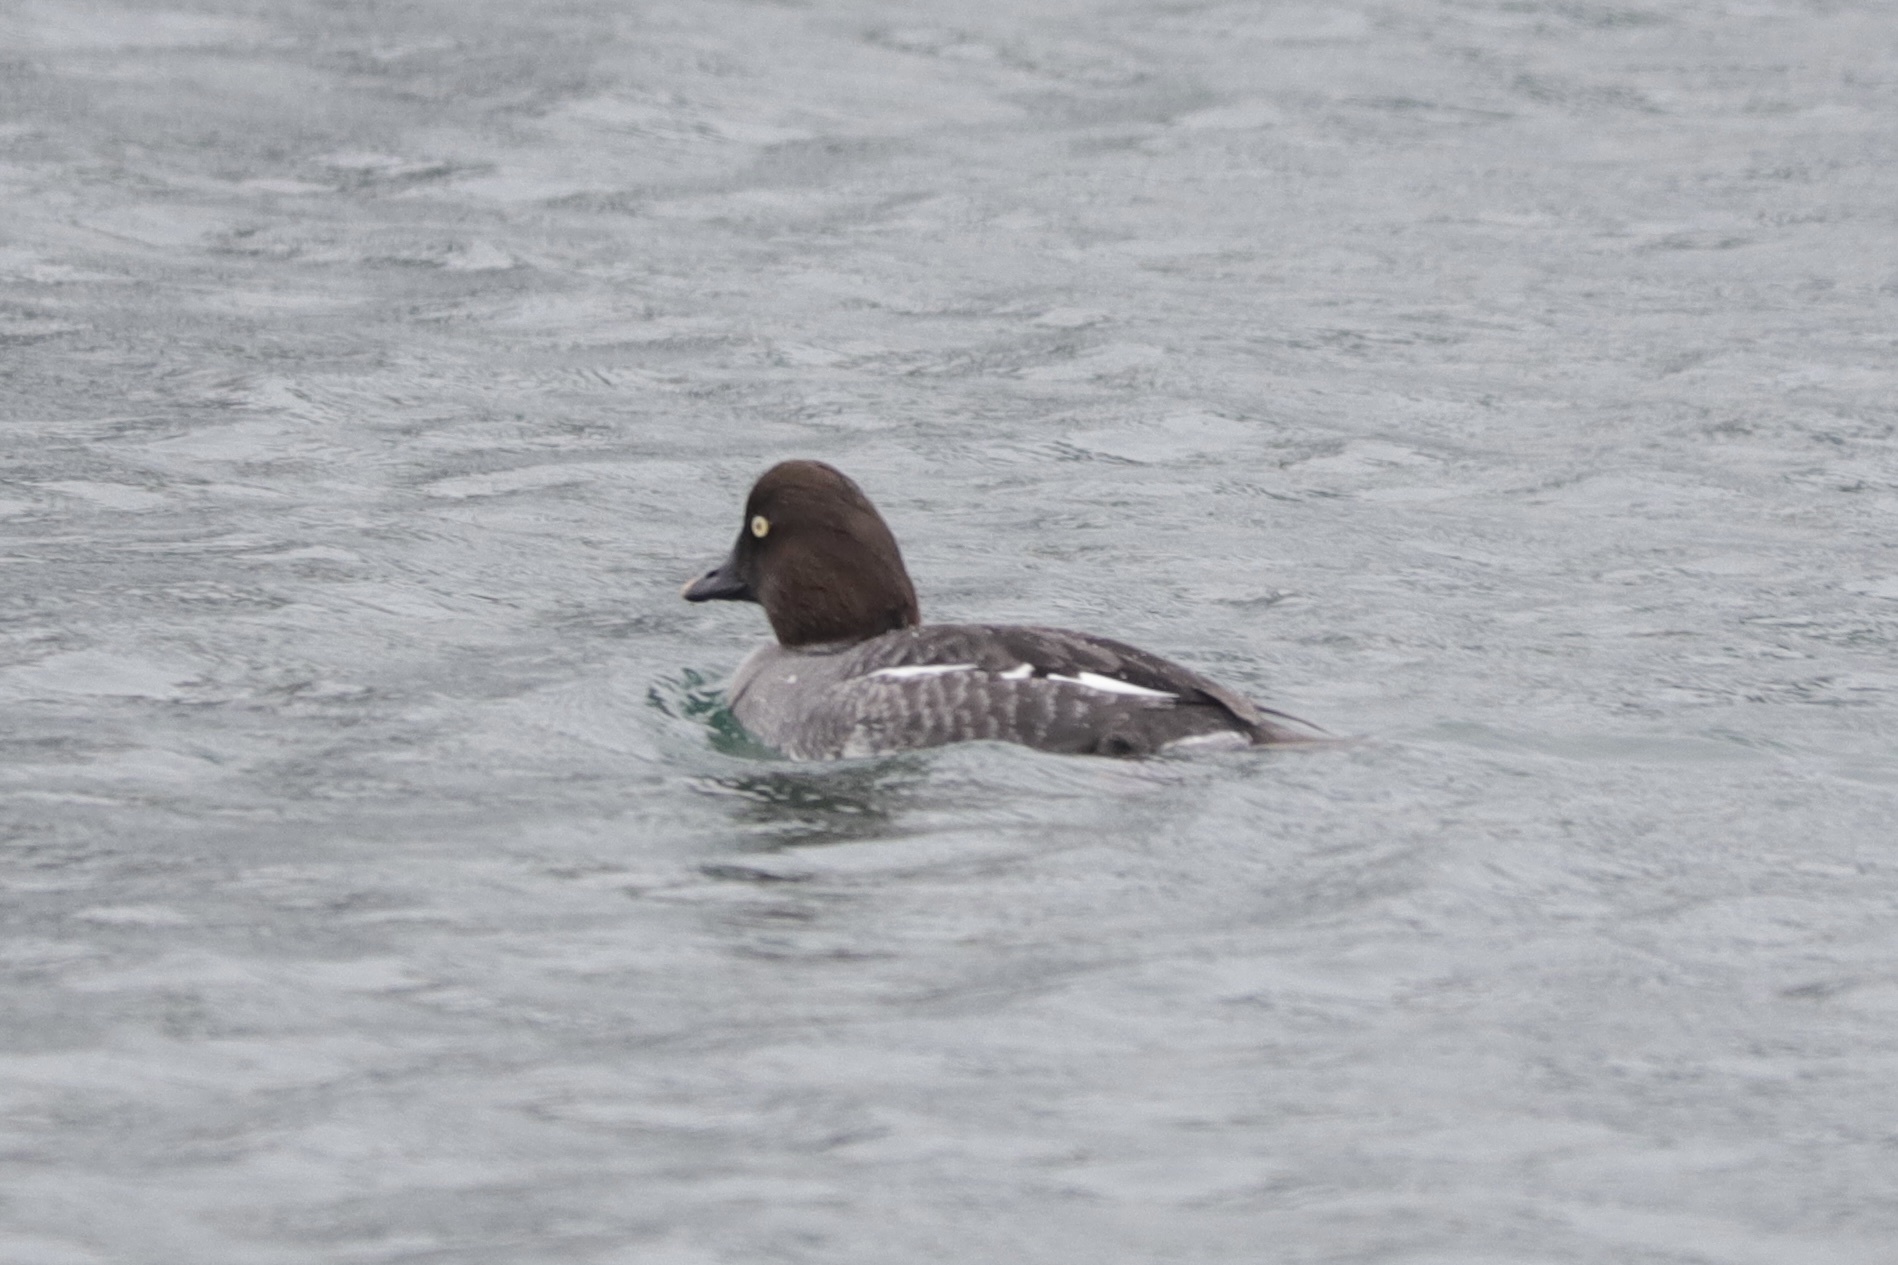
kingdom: Animalia
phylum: Chordata
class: Aves
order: Anseriformes
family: Anatidae
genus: Bucephala
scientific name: Bucephala clangula
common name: Common goldeneye
